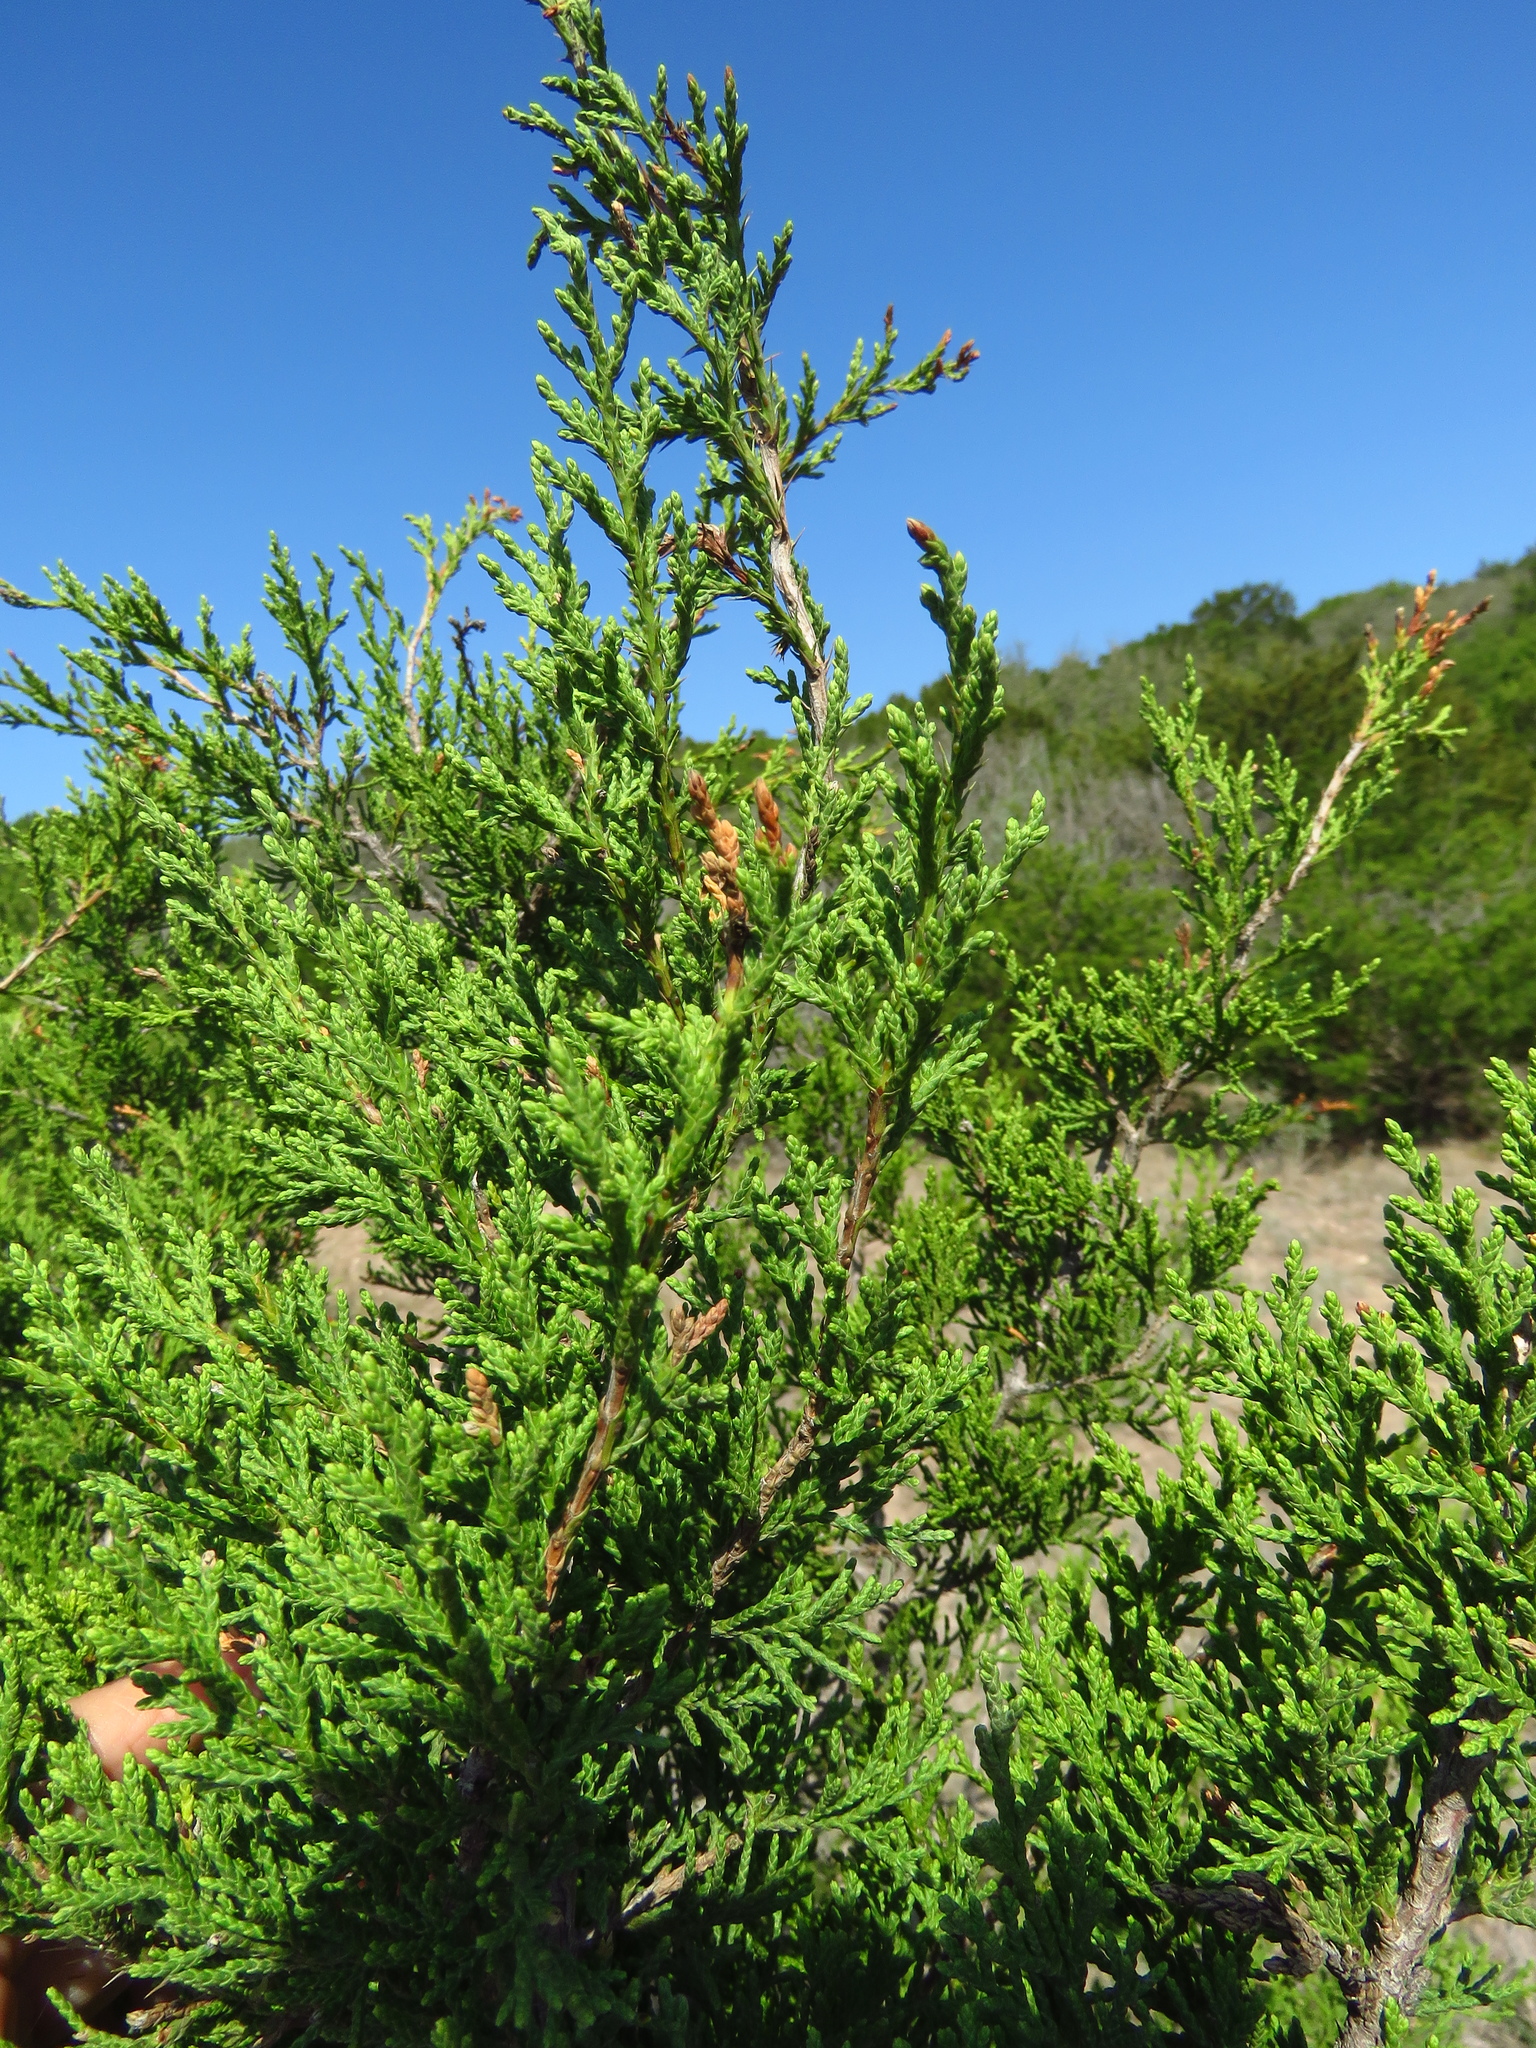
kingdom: Plantae
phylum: Tracheophyta
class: Pinopsida
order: Pinales
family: Cupressaceae
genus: Juniperus
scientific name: Juniperus ashei
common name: Mexican juniper
